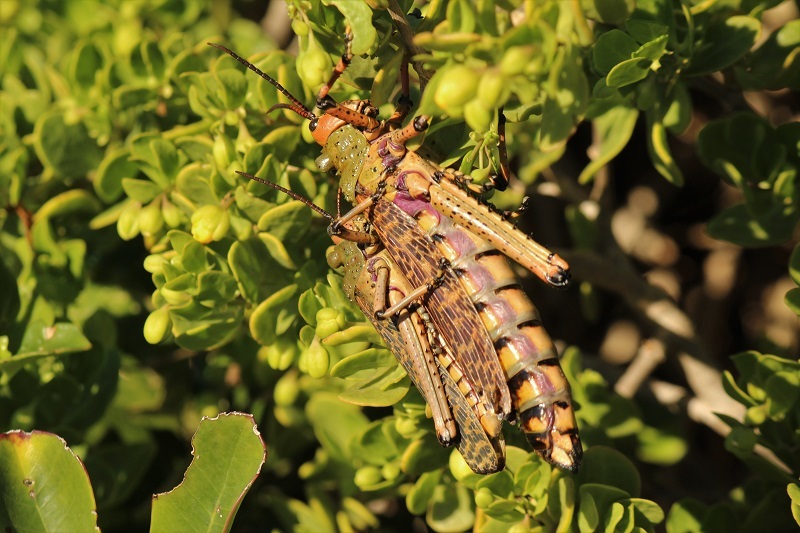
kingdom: Animalia
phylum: Arthropoda
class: Insecta
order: Orthoptera
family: Pyrgomorphidae
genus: Phymateus
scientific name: Phymateus leprosus
